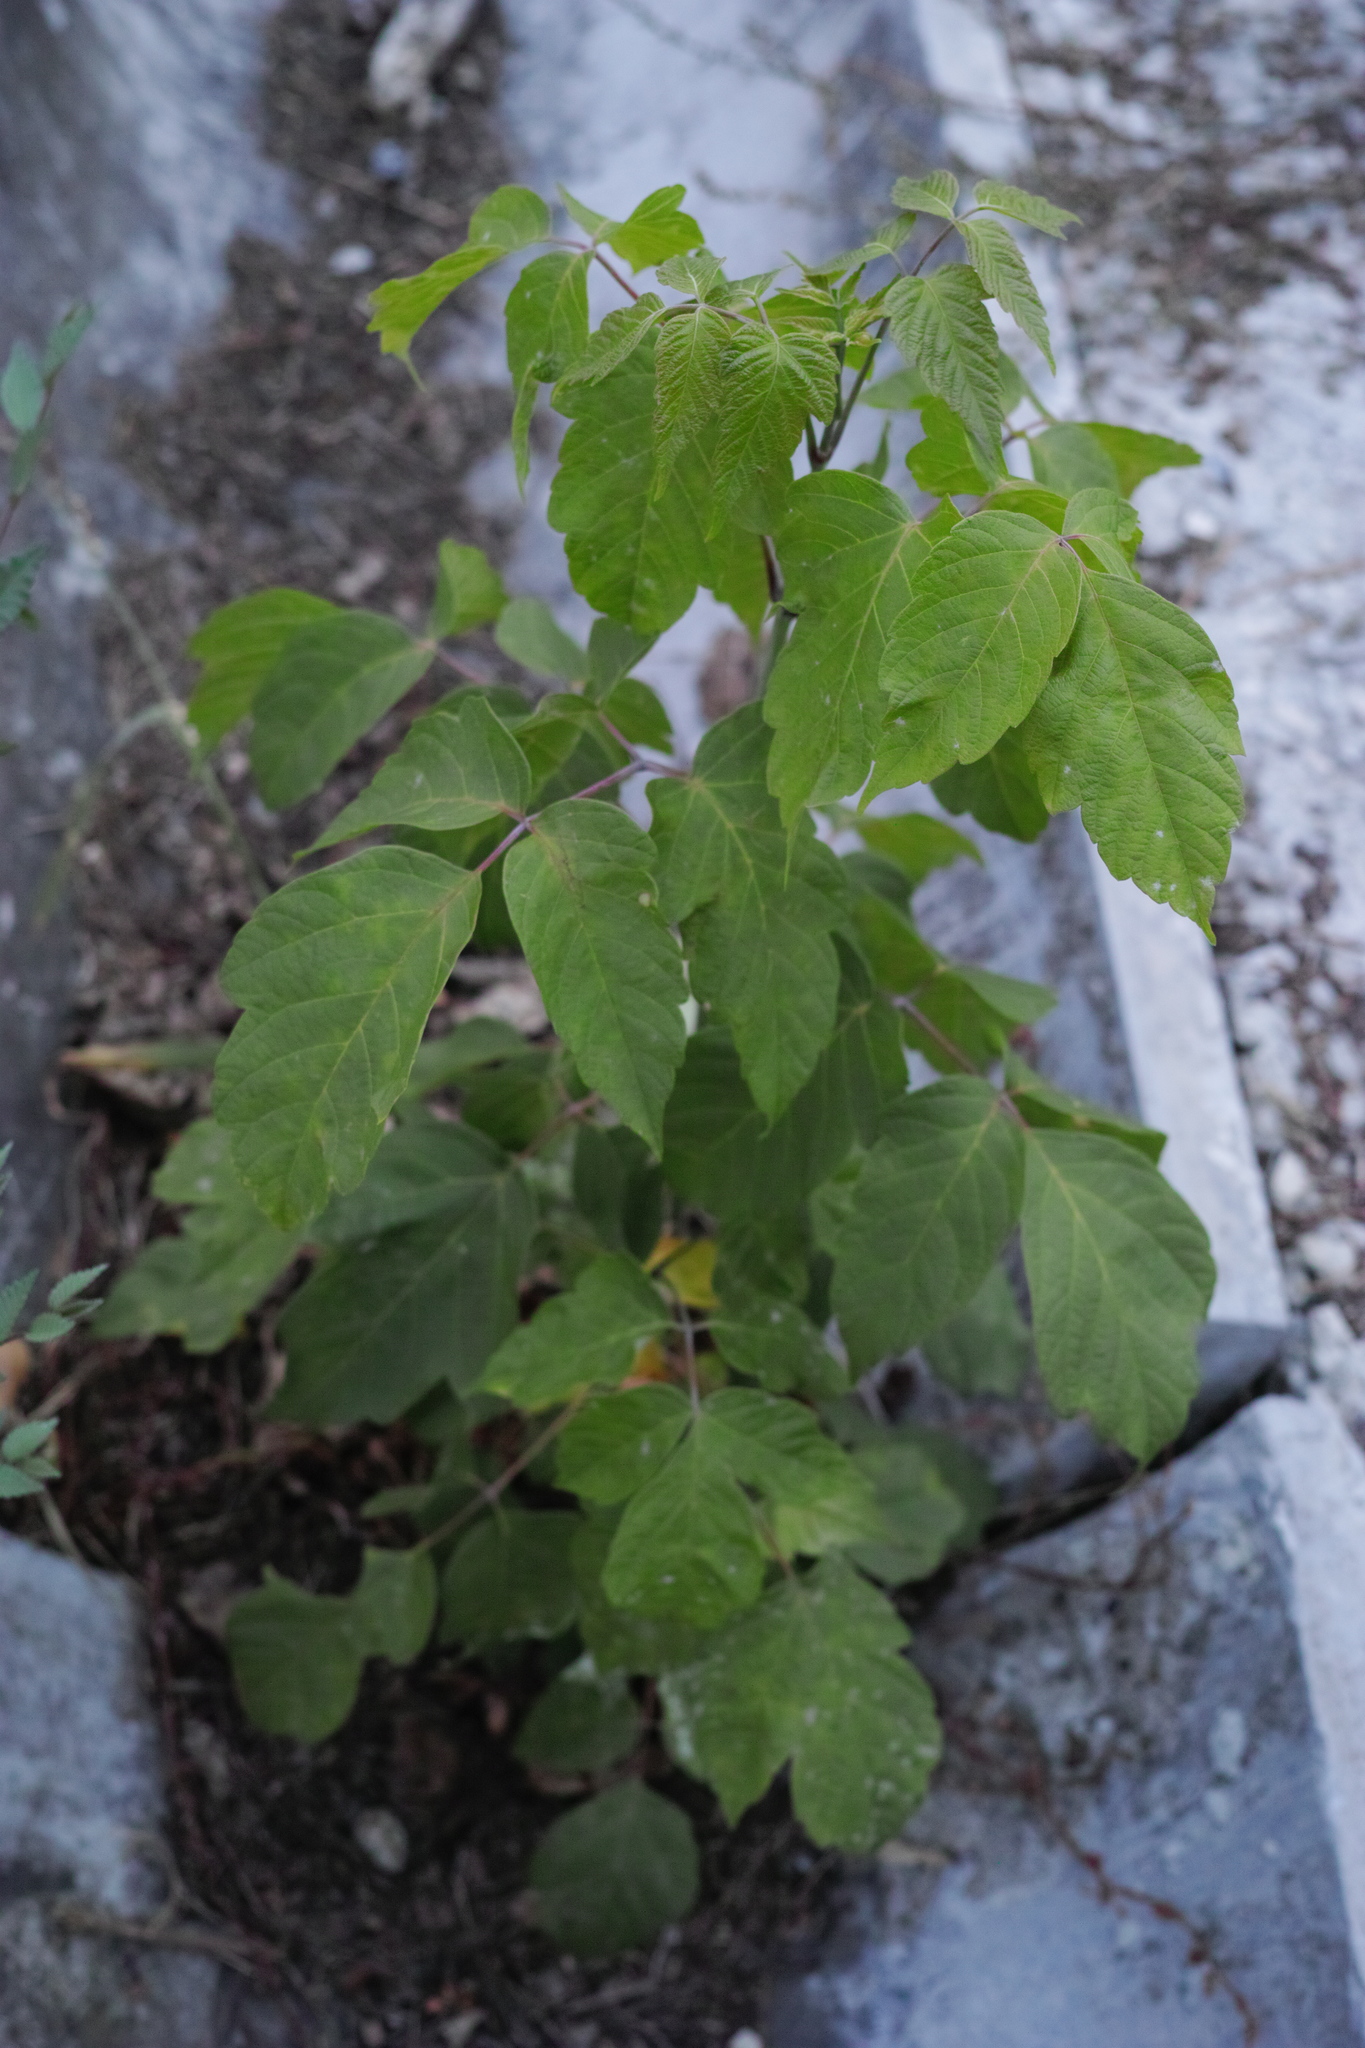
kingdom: Plantae
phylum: Tracheophyta
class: Magnoliopsida
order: Sapindales
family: Sapindaceae
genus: Acer
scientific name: Acer negundo
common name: Ashleaf maple
